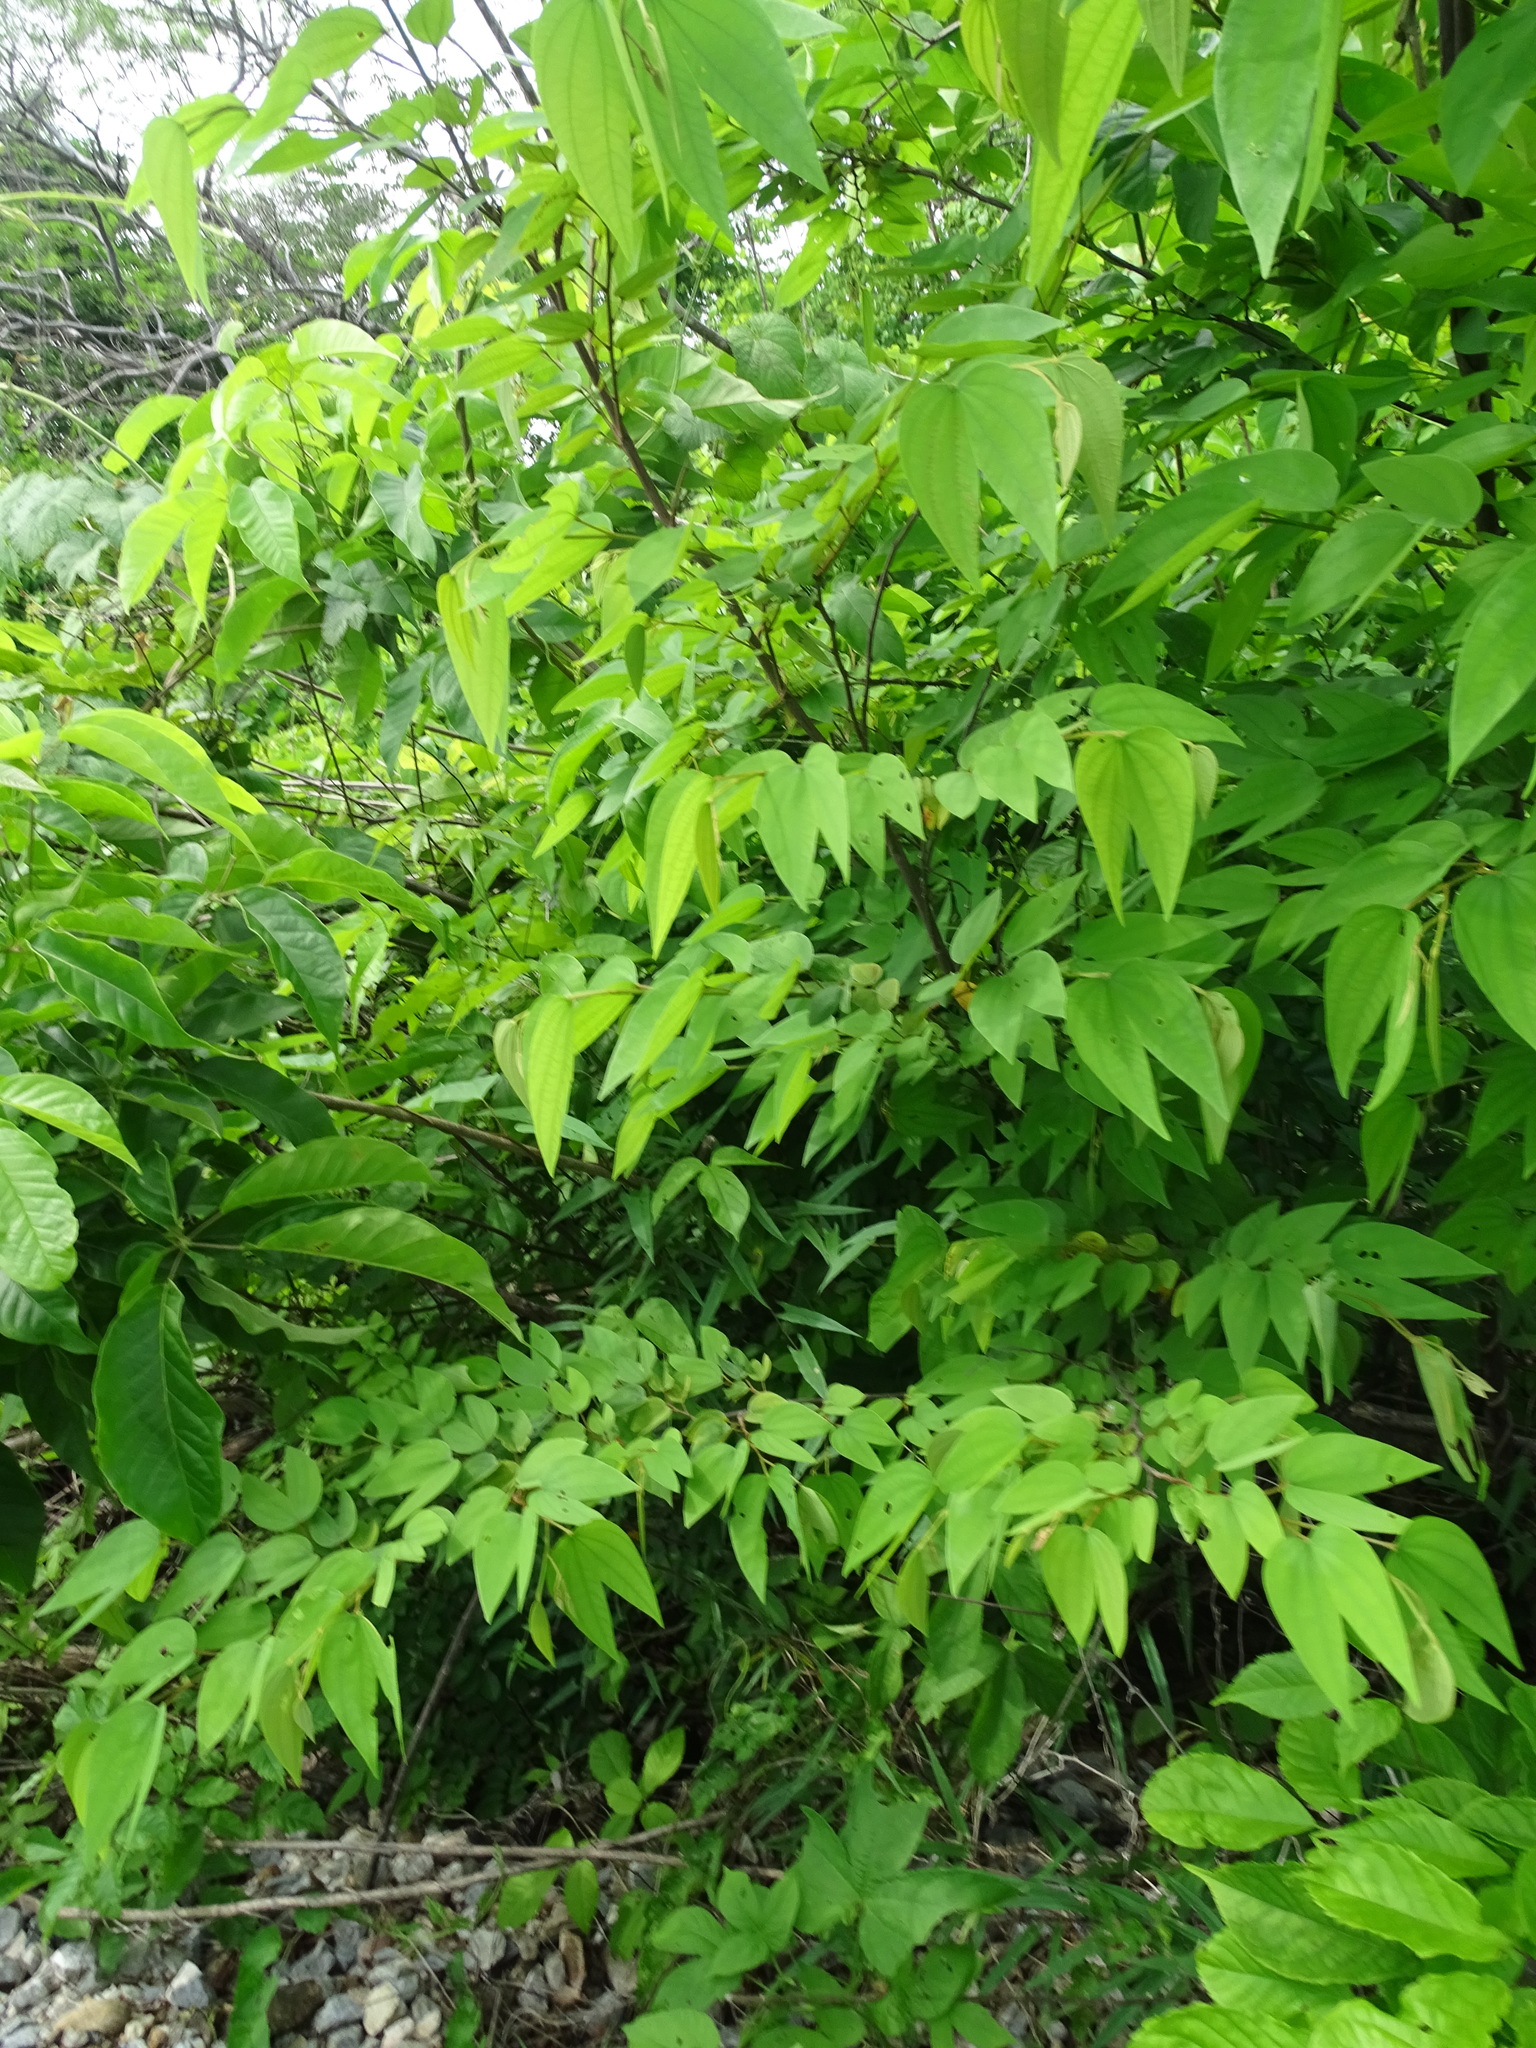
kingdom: Plantae
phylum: Tracheophyta
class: Magnoliopsida
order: Fabales
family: Fabaceae
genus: Bauhinia
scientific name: Bauhinia ungulata
